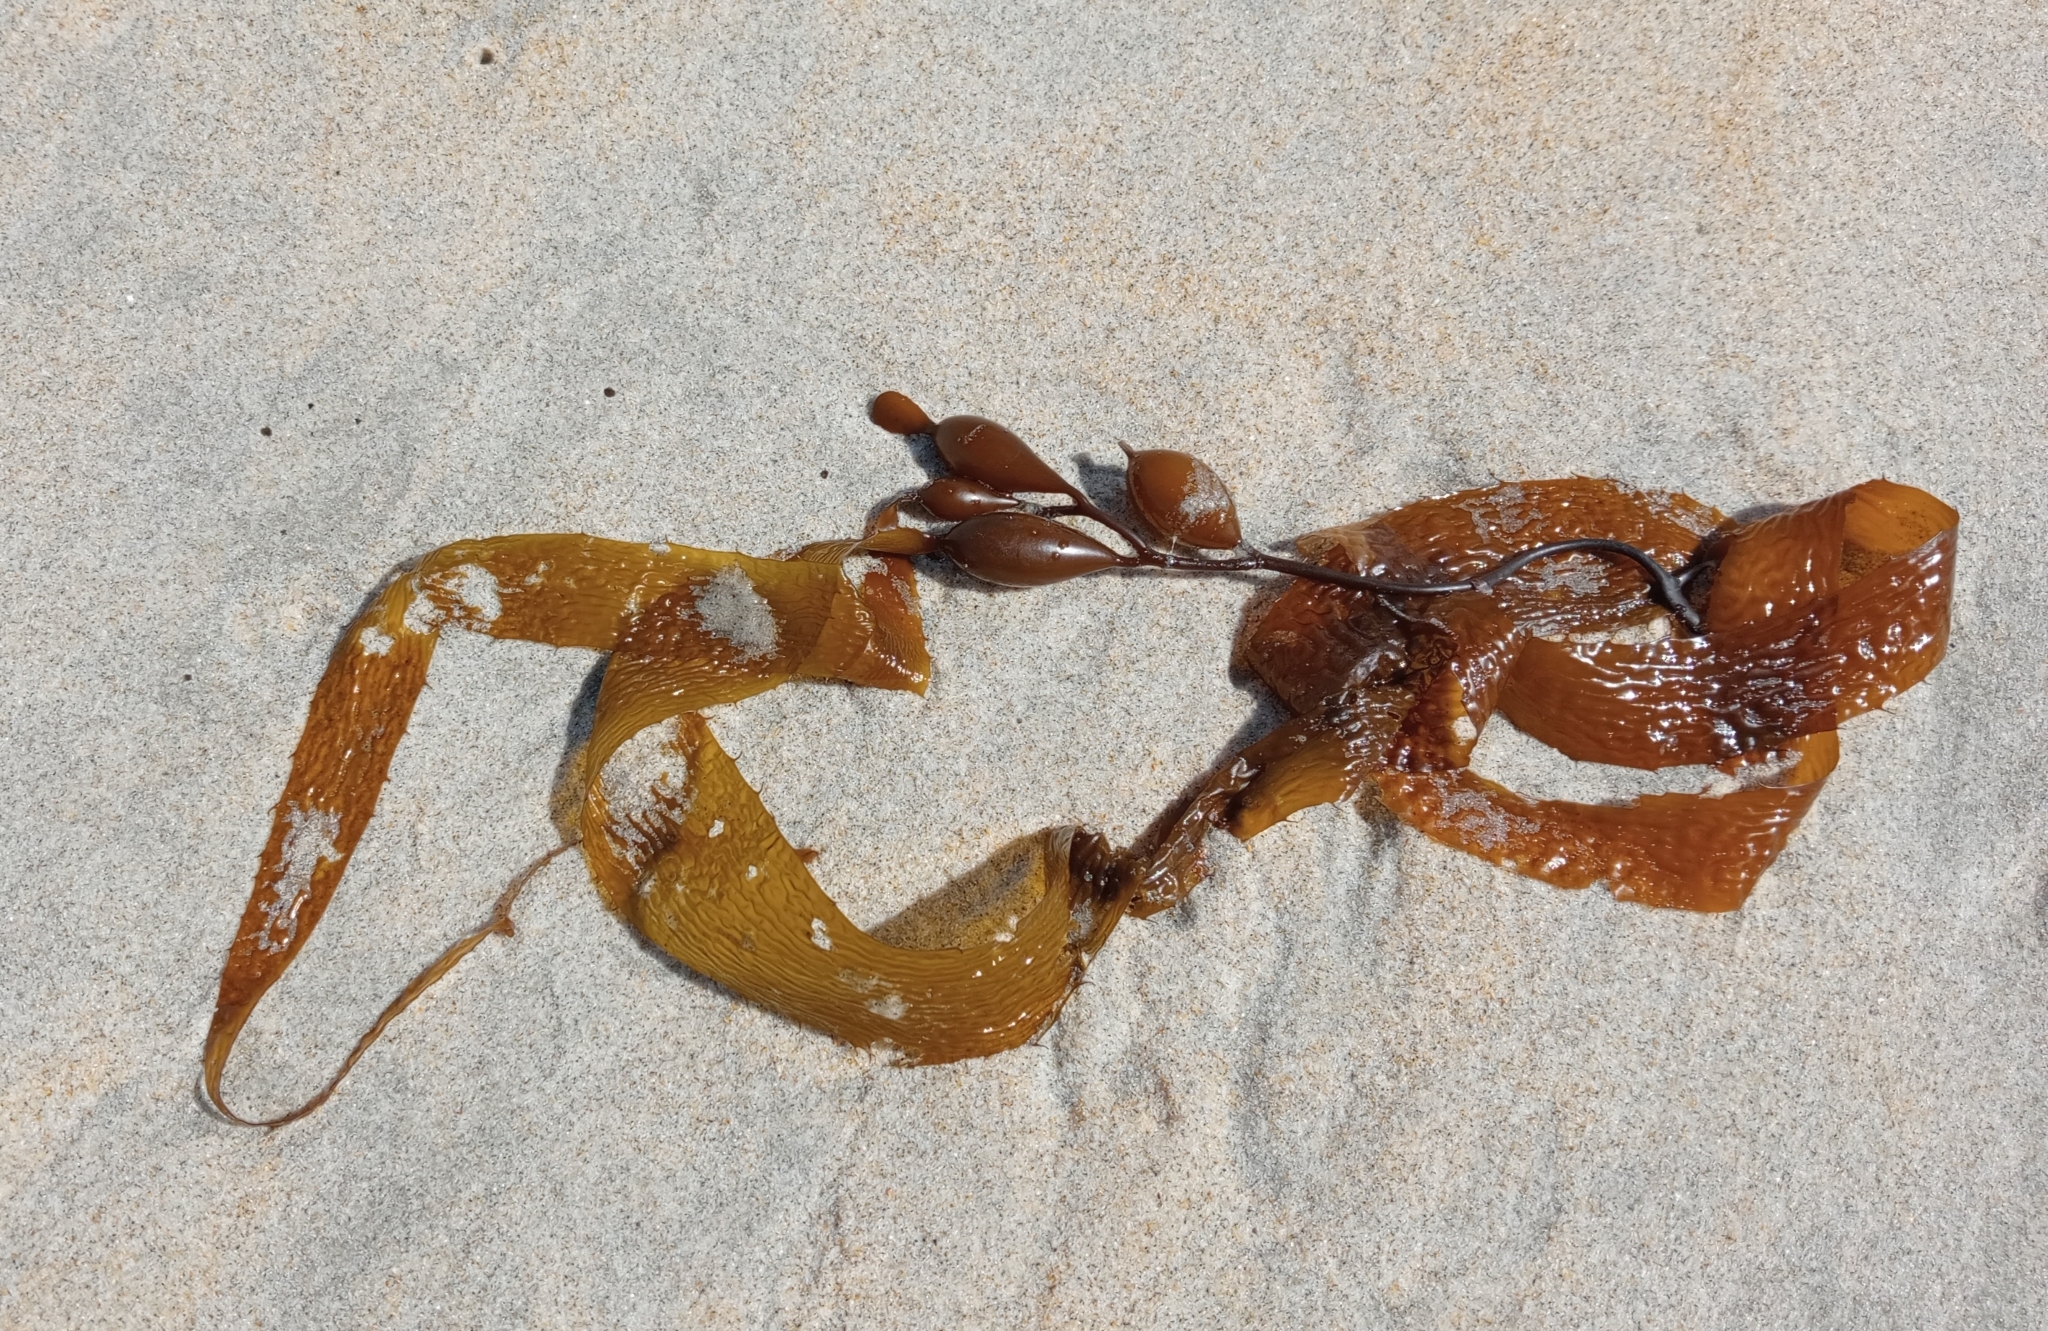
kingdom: Chromista
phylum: Ochrophyta
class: Phaeophyceae
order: Laminariales
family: Laminariaceae
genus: Macrocystis
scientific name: Macrocystis pyrifera
